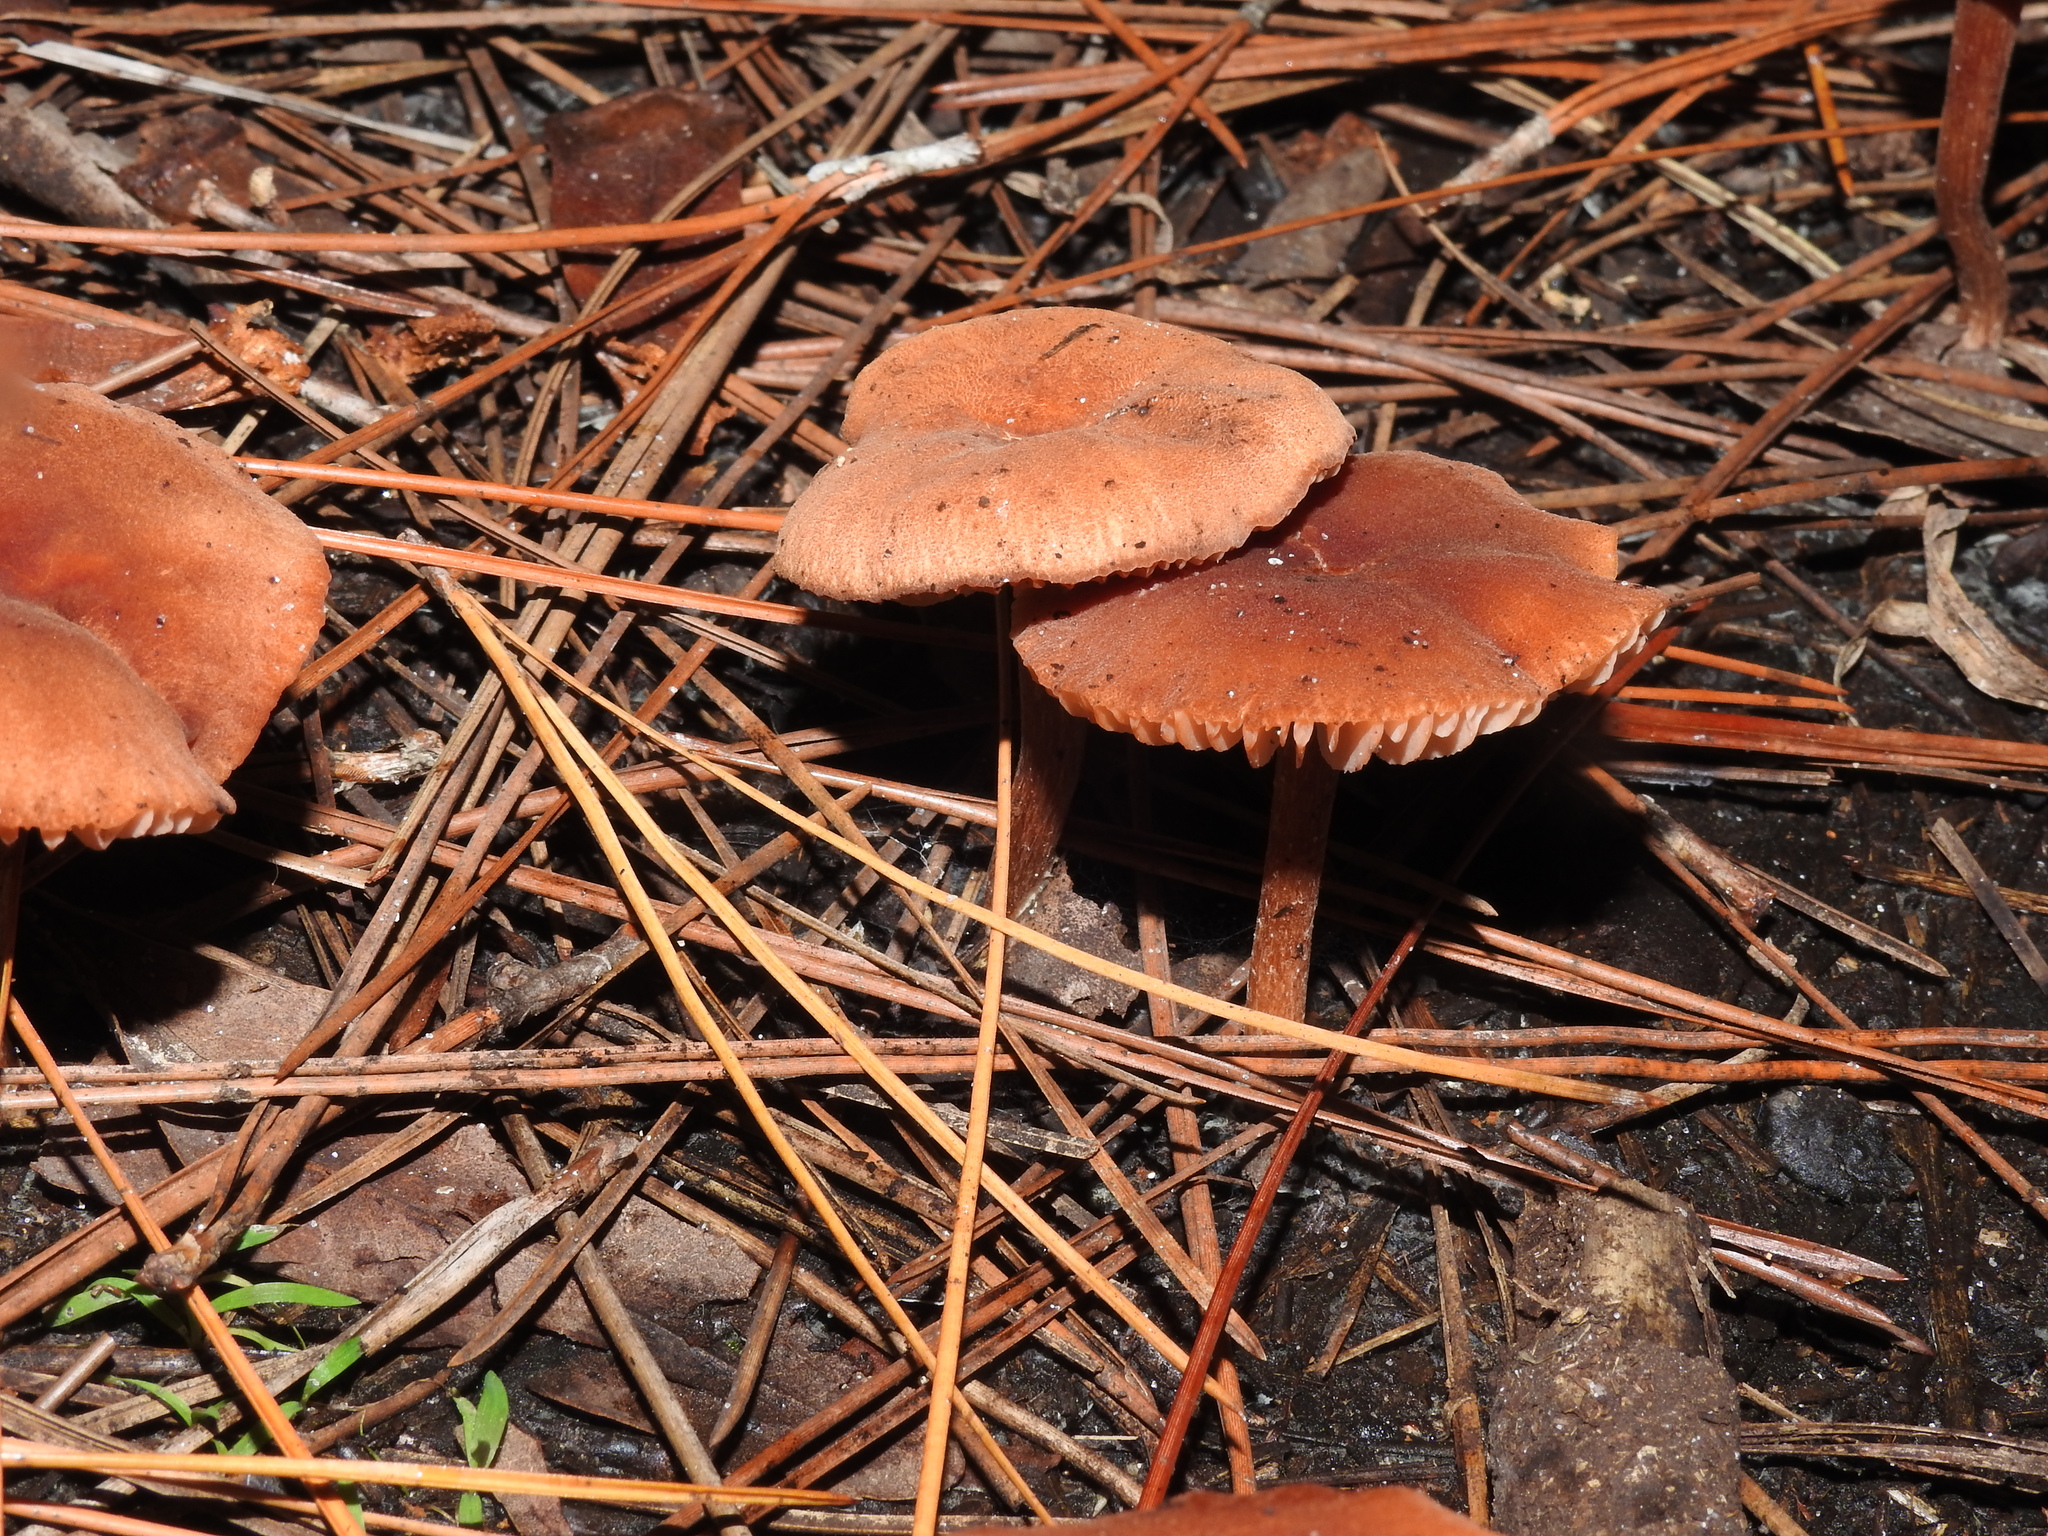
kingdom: Fungi
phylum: Basidiomycota
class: Agaricomycetes
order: Agaricales
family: Hydnangiaceae
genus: Laccaria
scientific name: Laccaria laccata
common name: Deceiver
